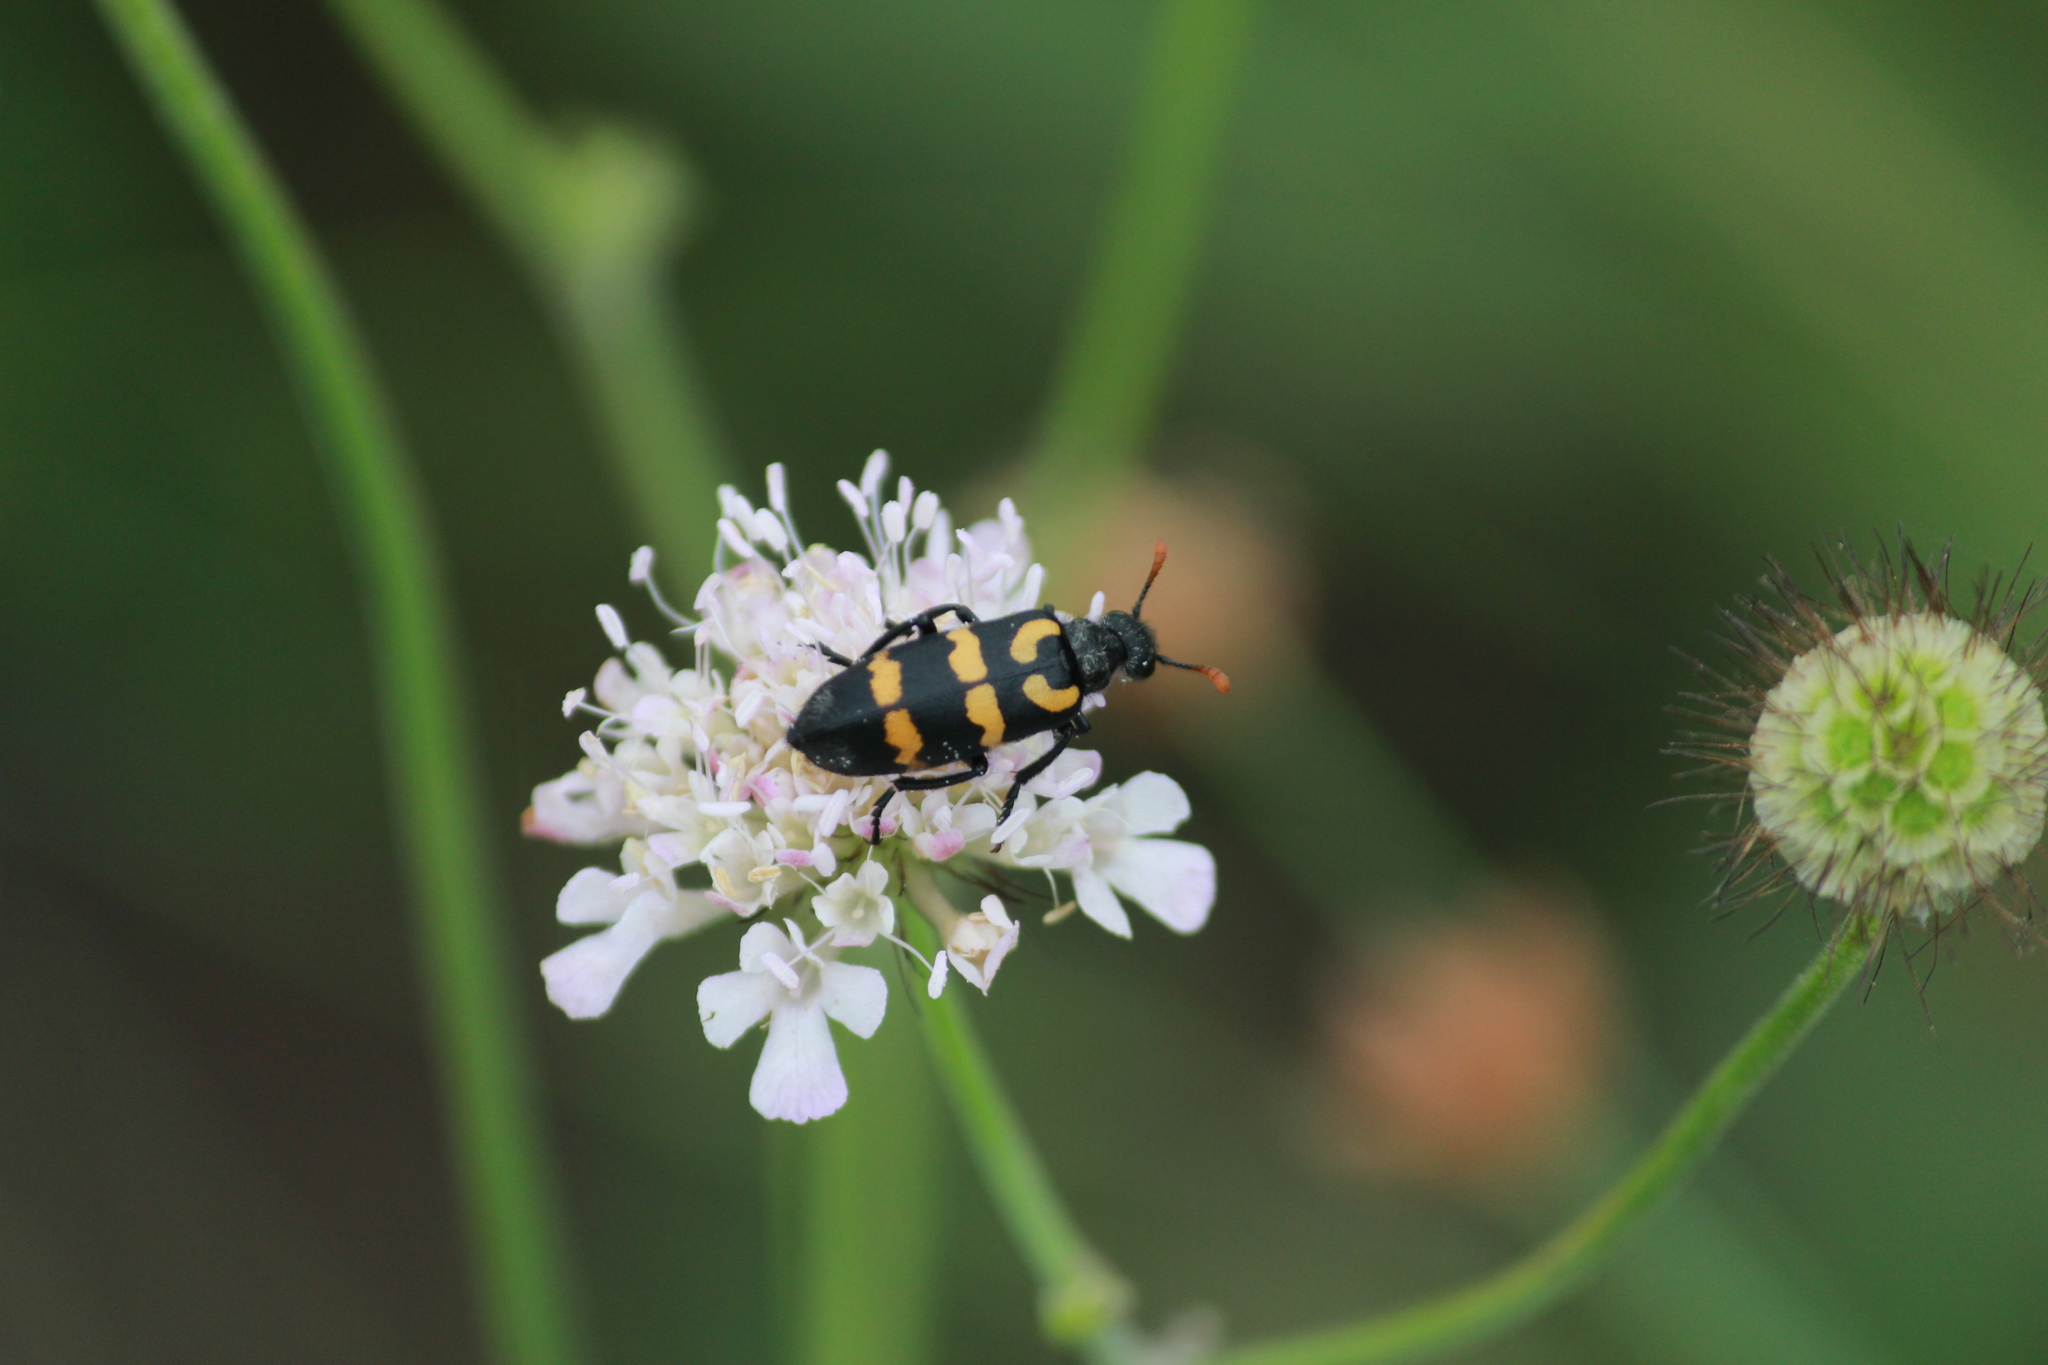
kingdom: Animalia
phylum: Arthropoda
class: Insecta
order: Coleoptera
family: Meloidae
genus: Meloe
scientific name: Meloe lunata
